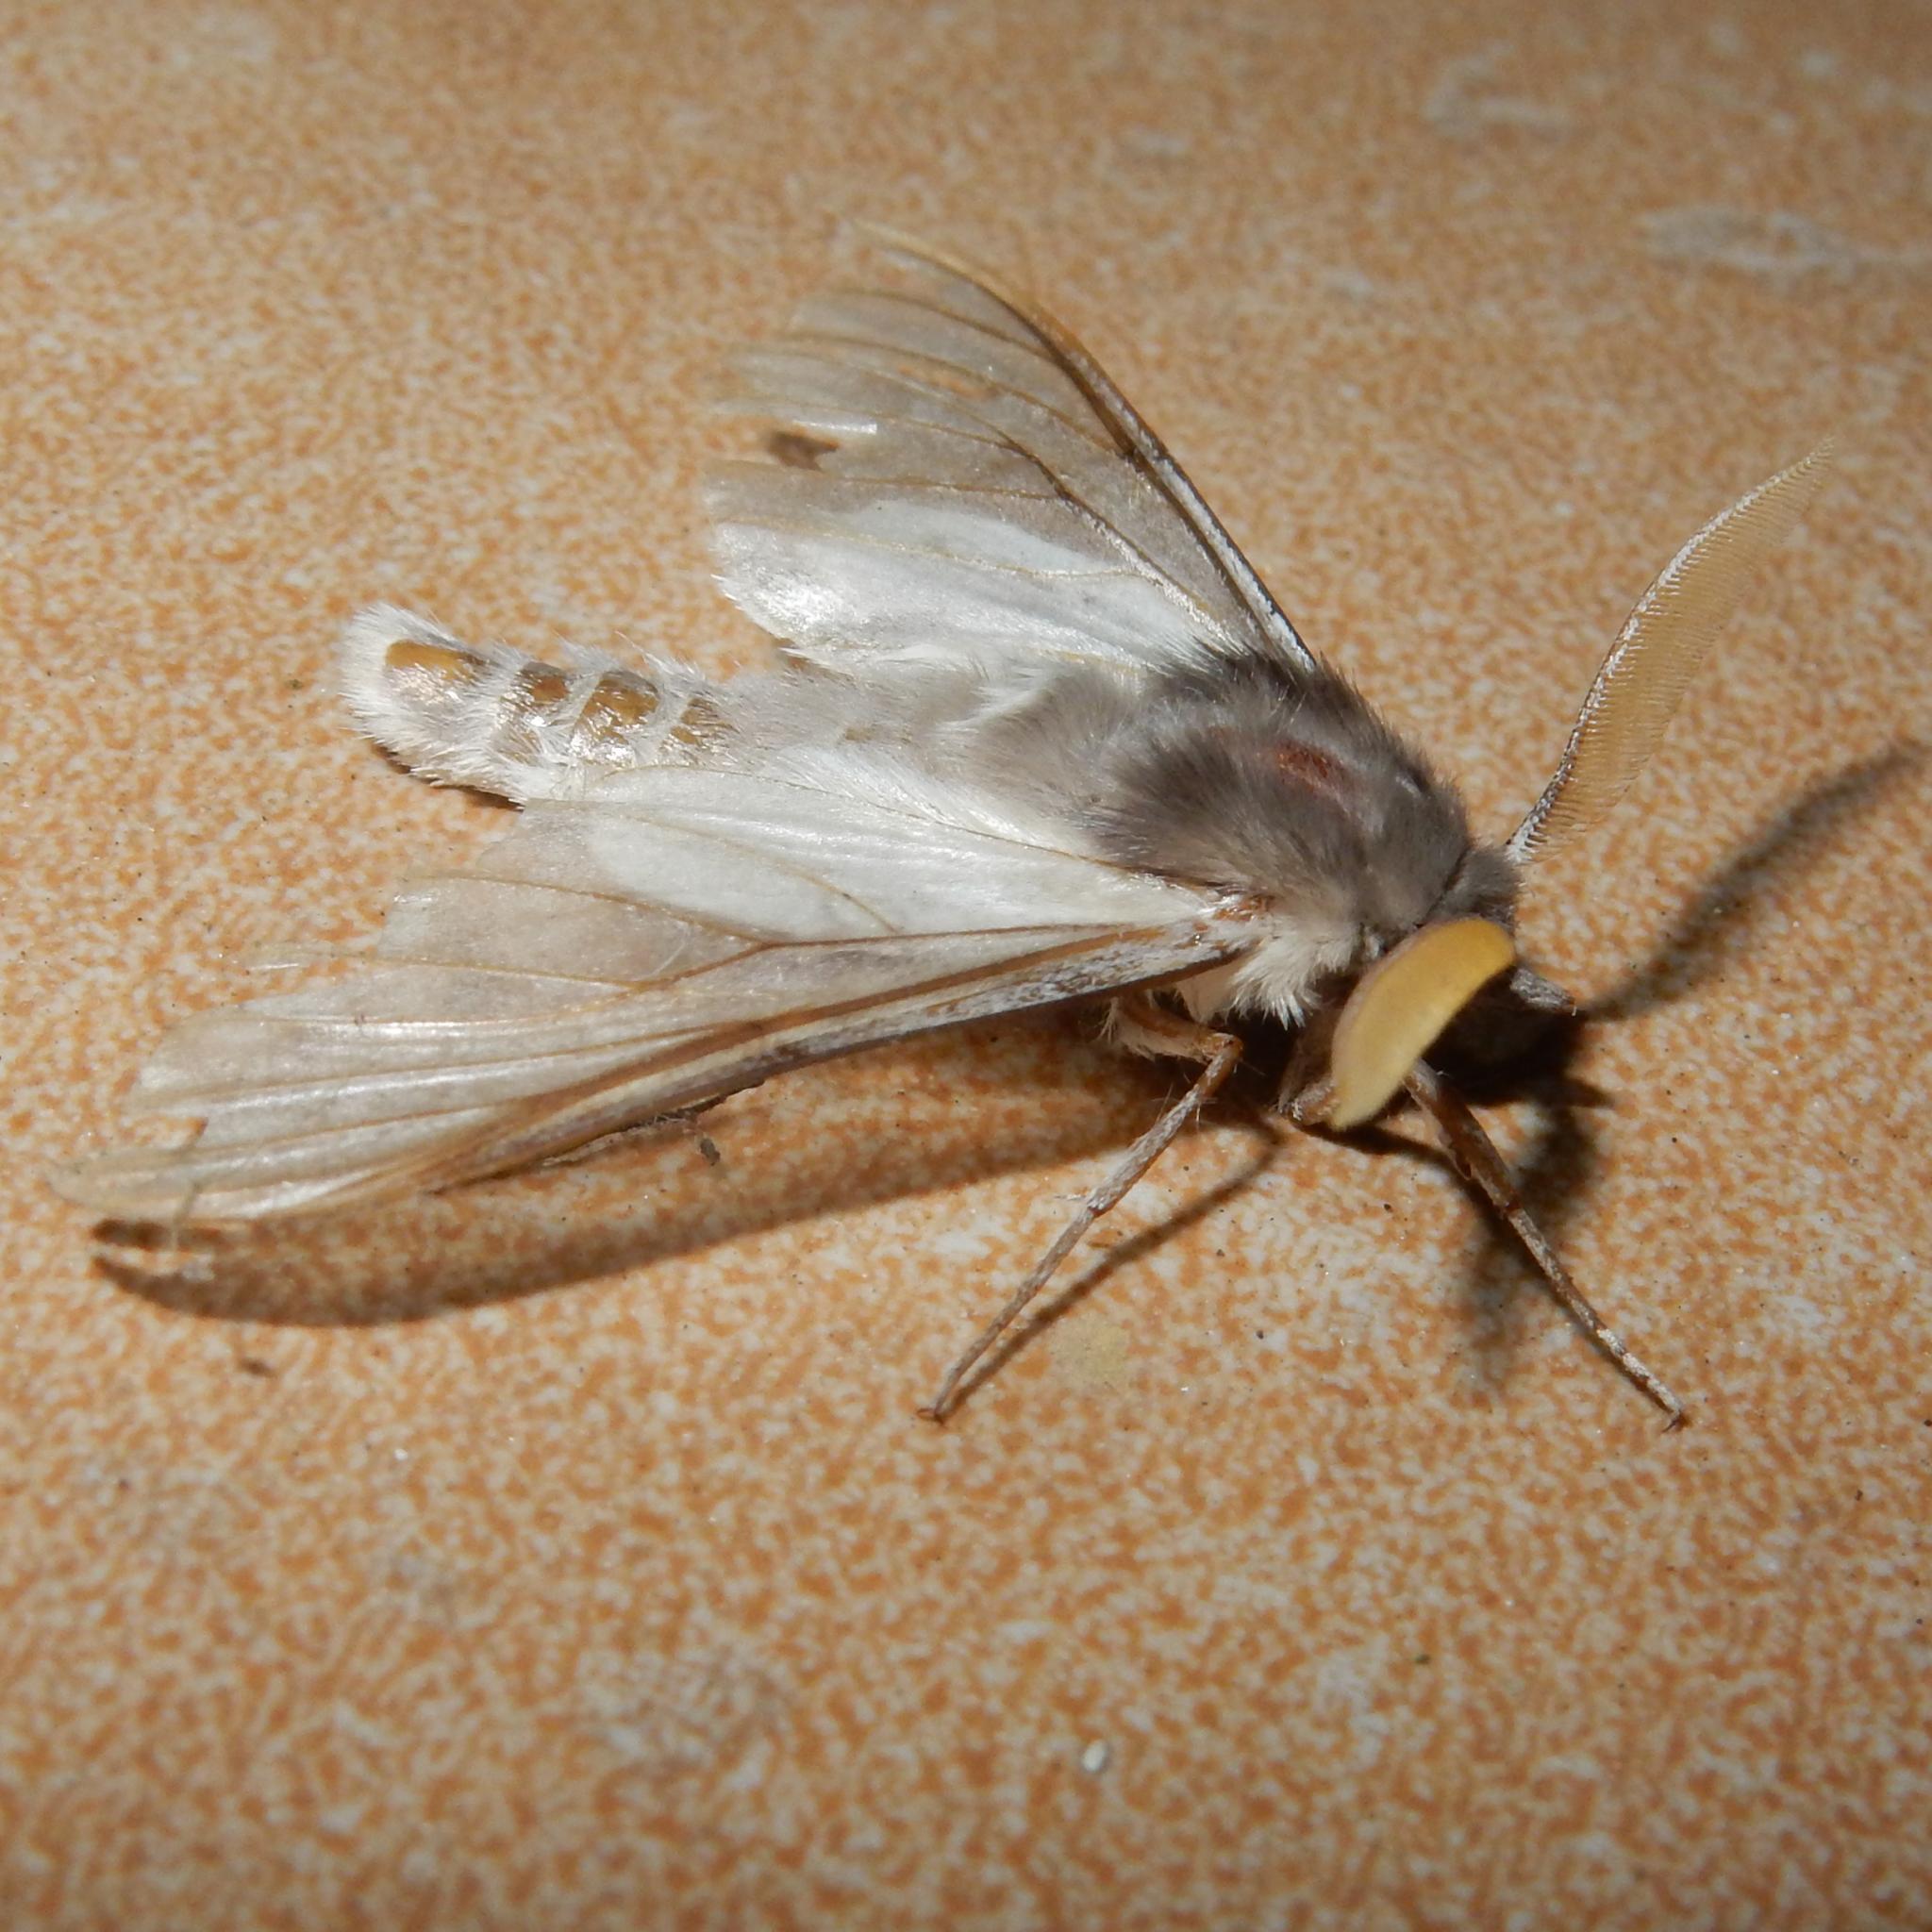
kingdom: Animalia
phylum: Arthropoda
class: Insecta
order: Lepidoptera
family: Erebidae
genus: Apisa
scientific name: Apisa canescens
